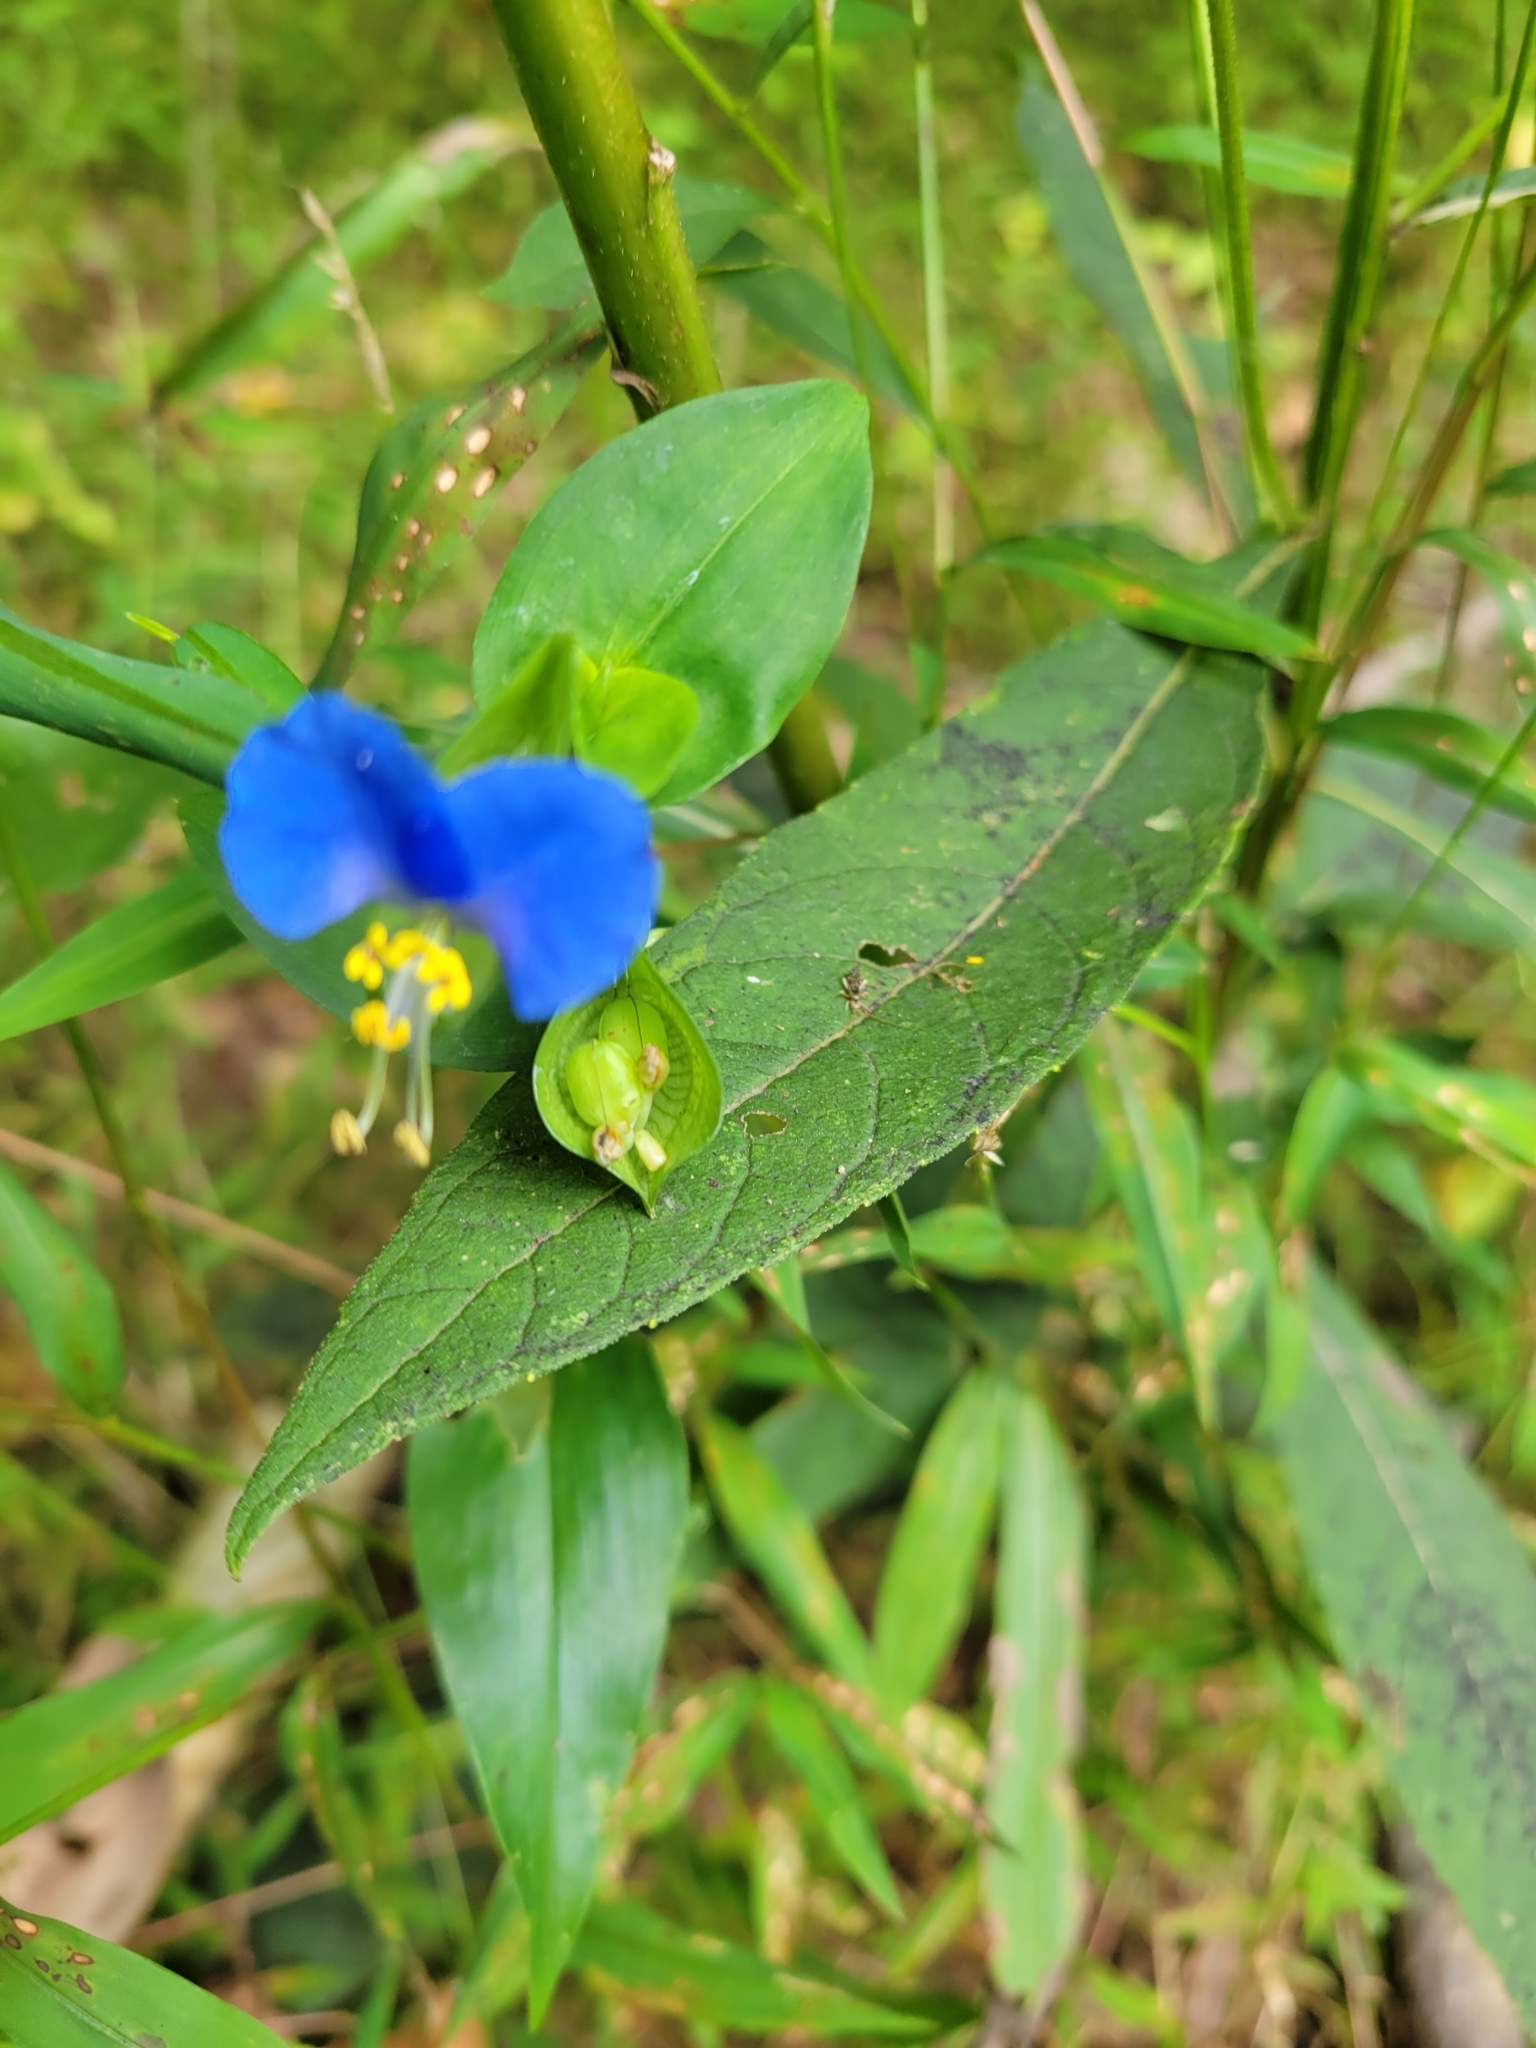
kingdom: Plantae
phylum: Tracheophyta
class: Liliopsida
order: Commelinales
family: Commelinaceae
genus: Commelina
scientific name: Commelina communis
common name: Asiatic dayflower
